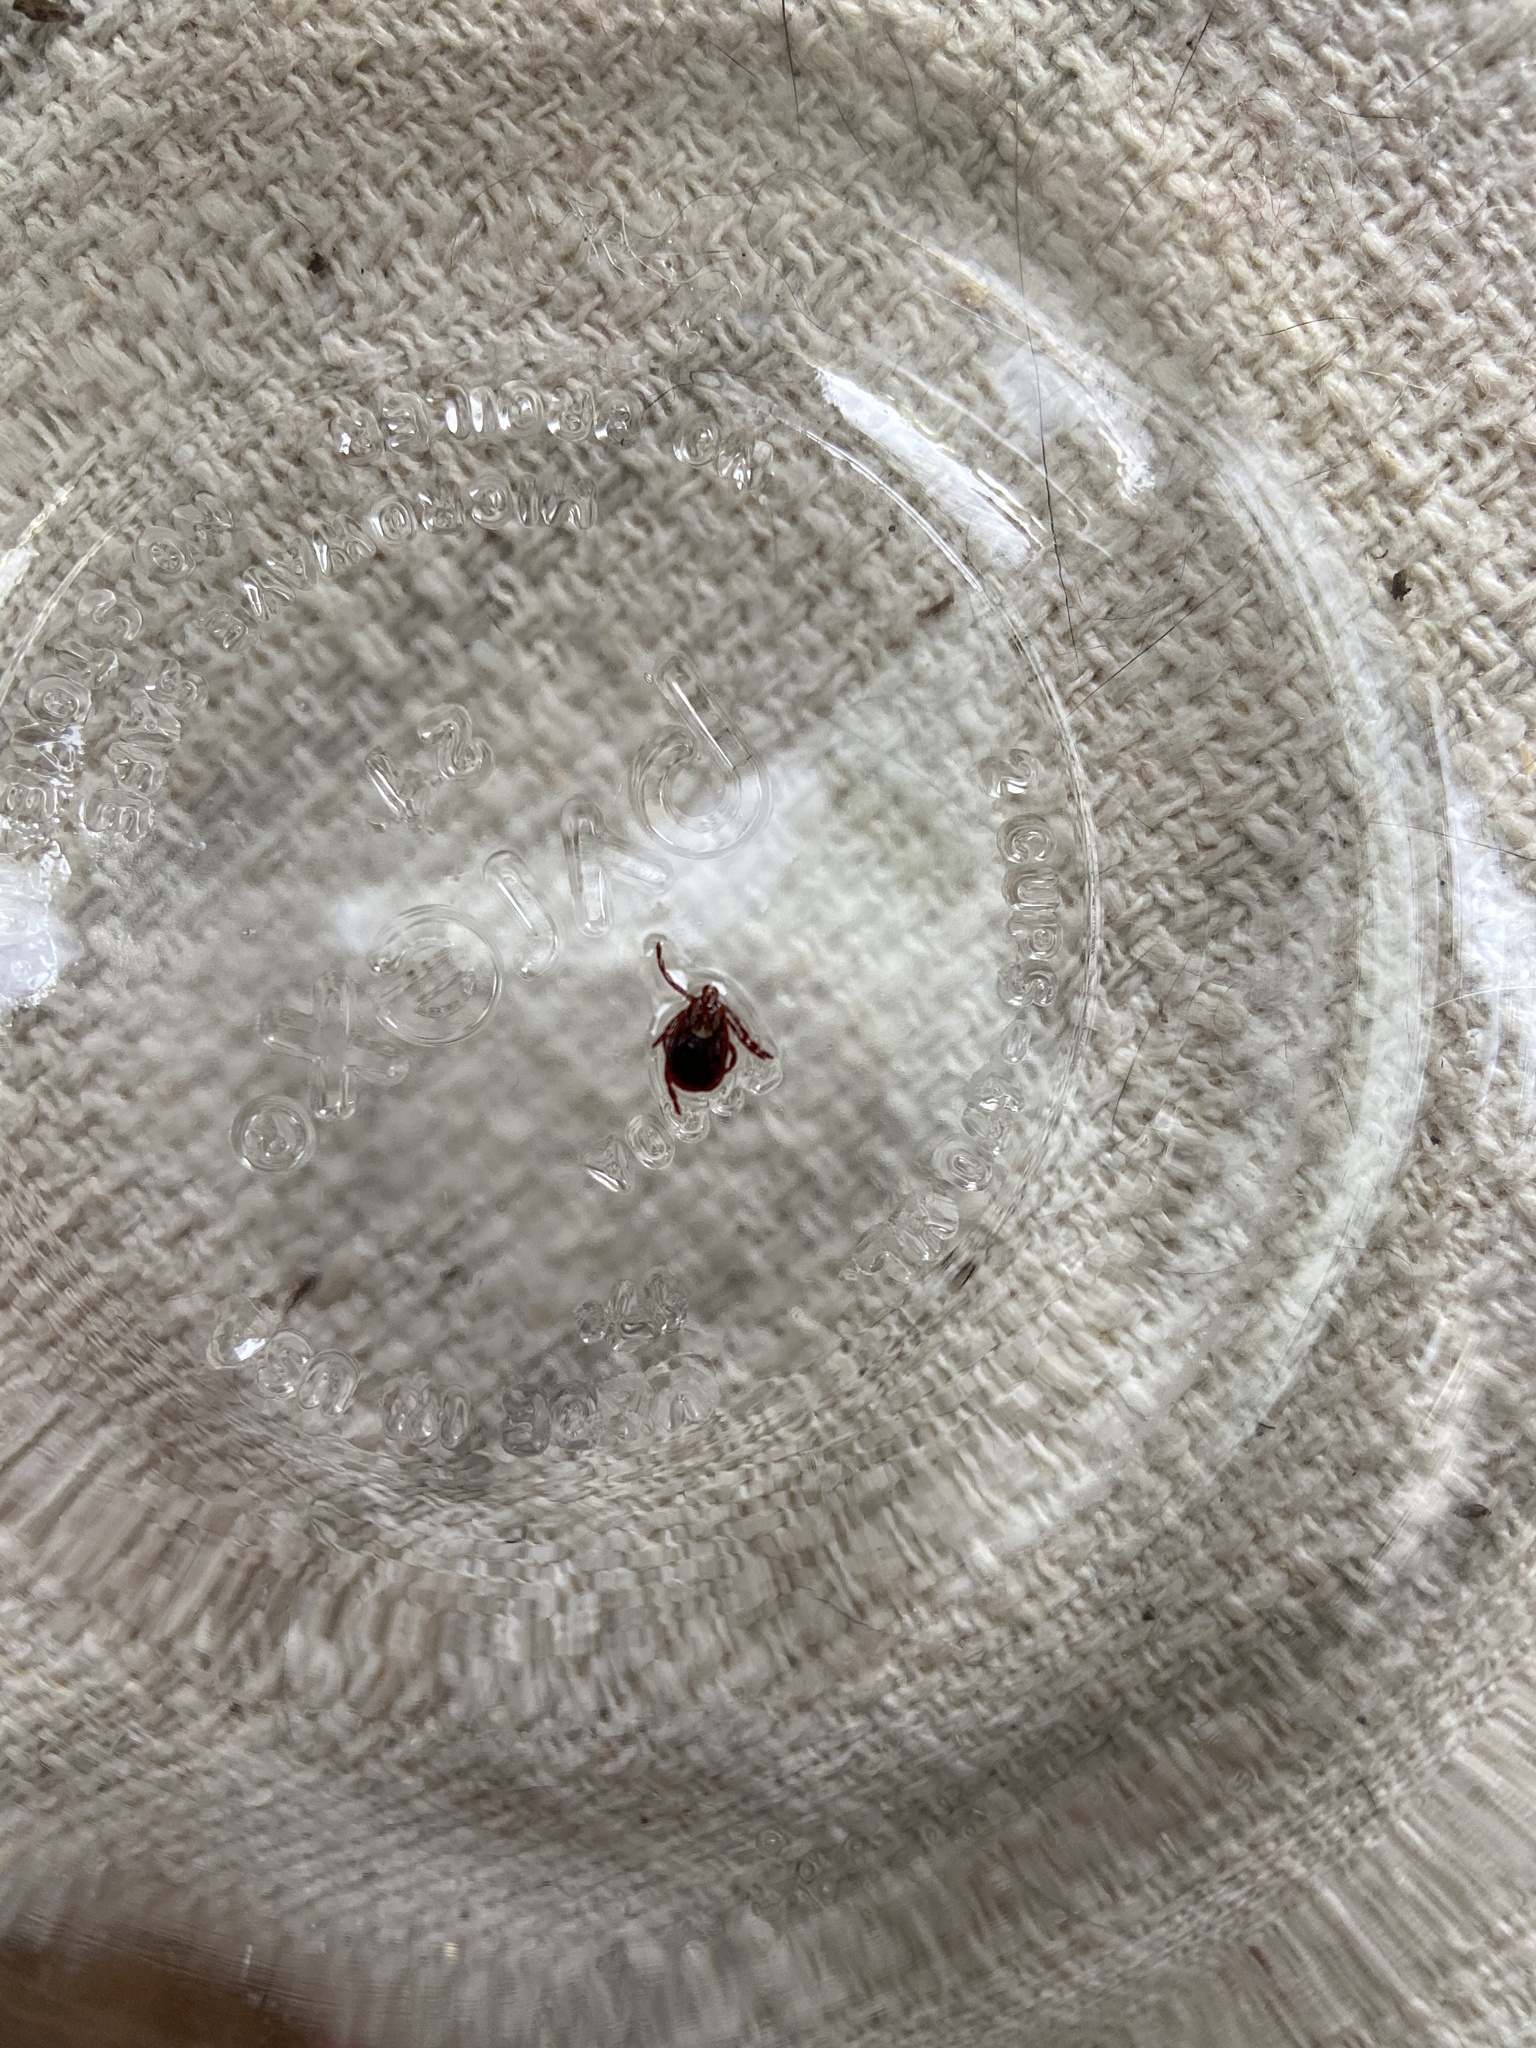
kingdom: Animalia
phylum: Arthropoda
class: Arachnida
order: Ixodida
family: Ixodidae
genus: Dermacentor
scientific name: Dermacentor variabilis
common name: American dog tick
